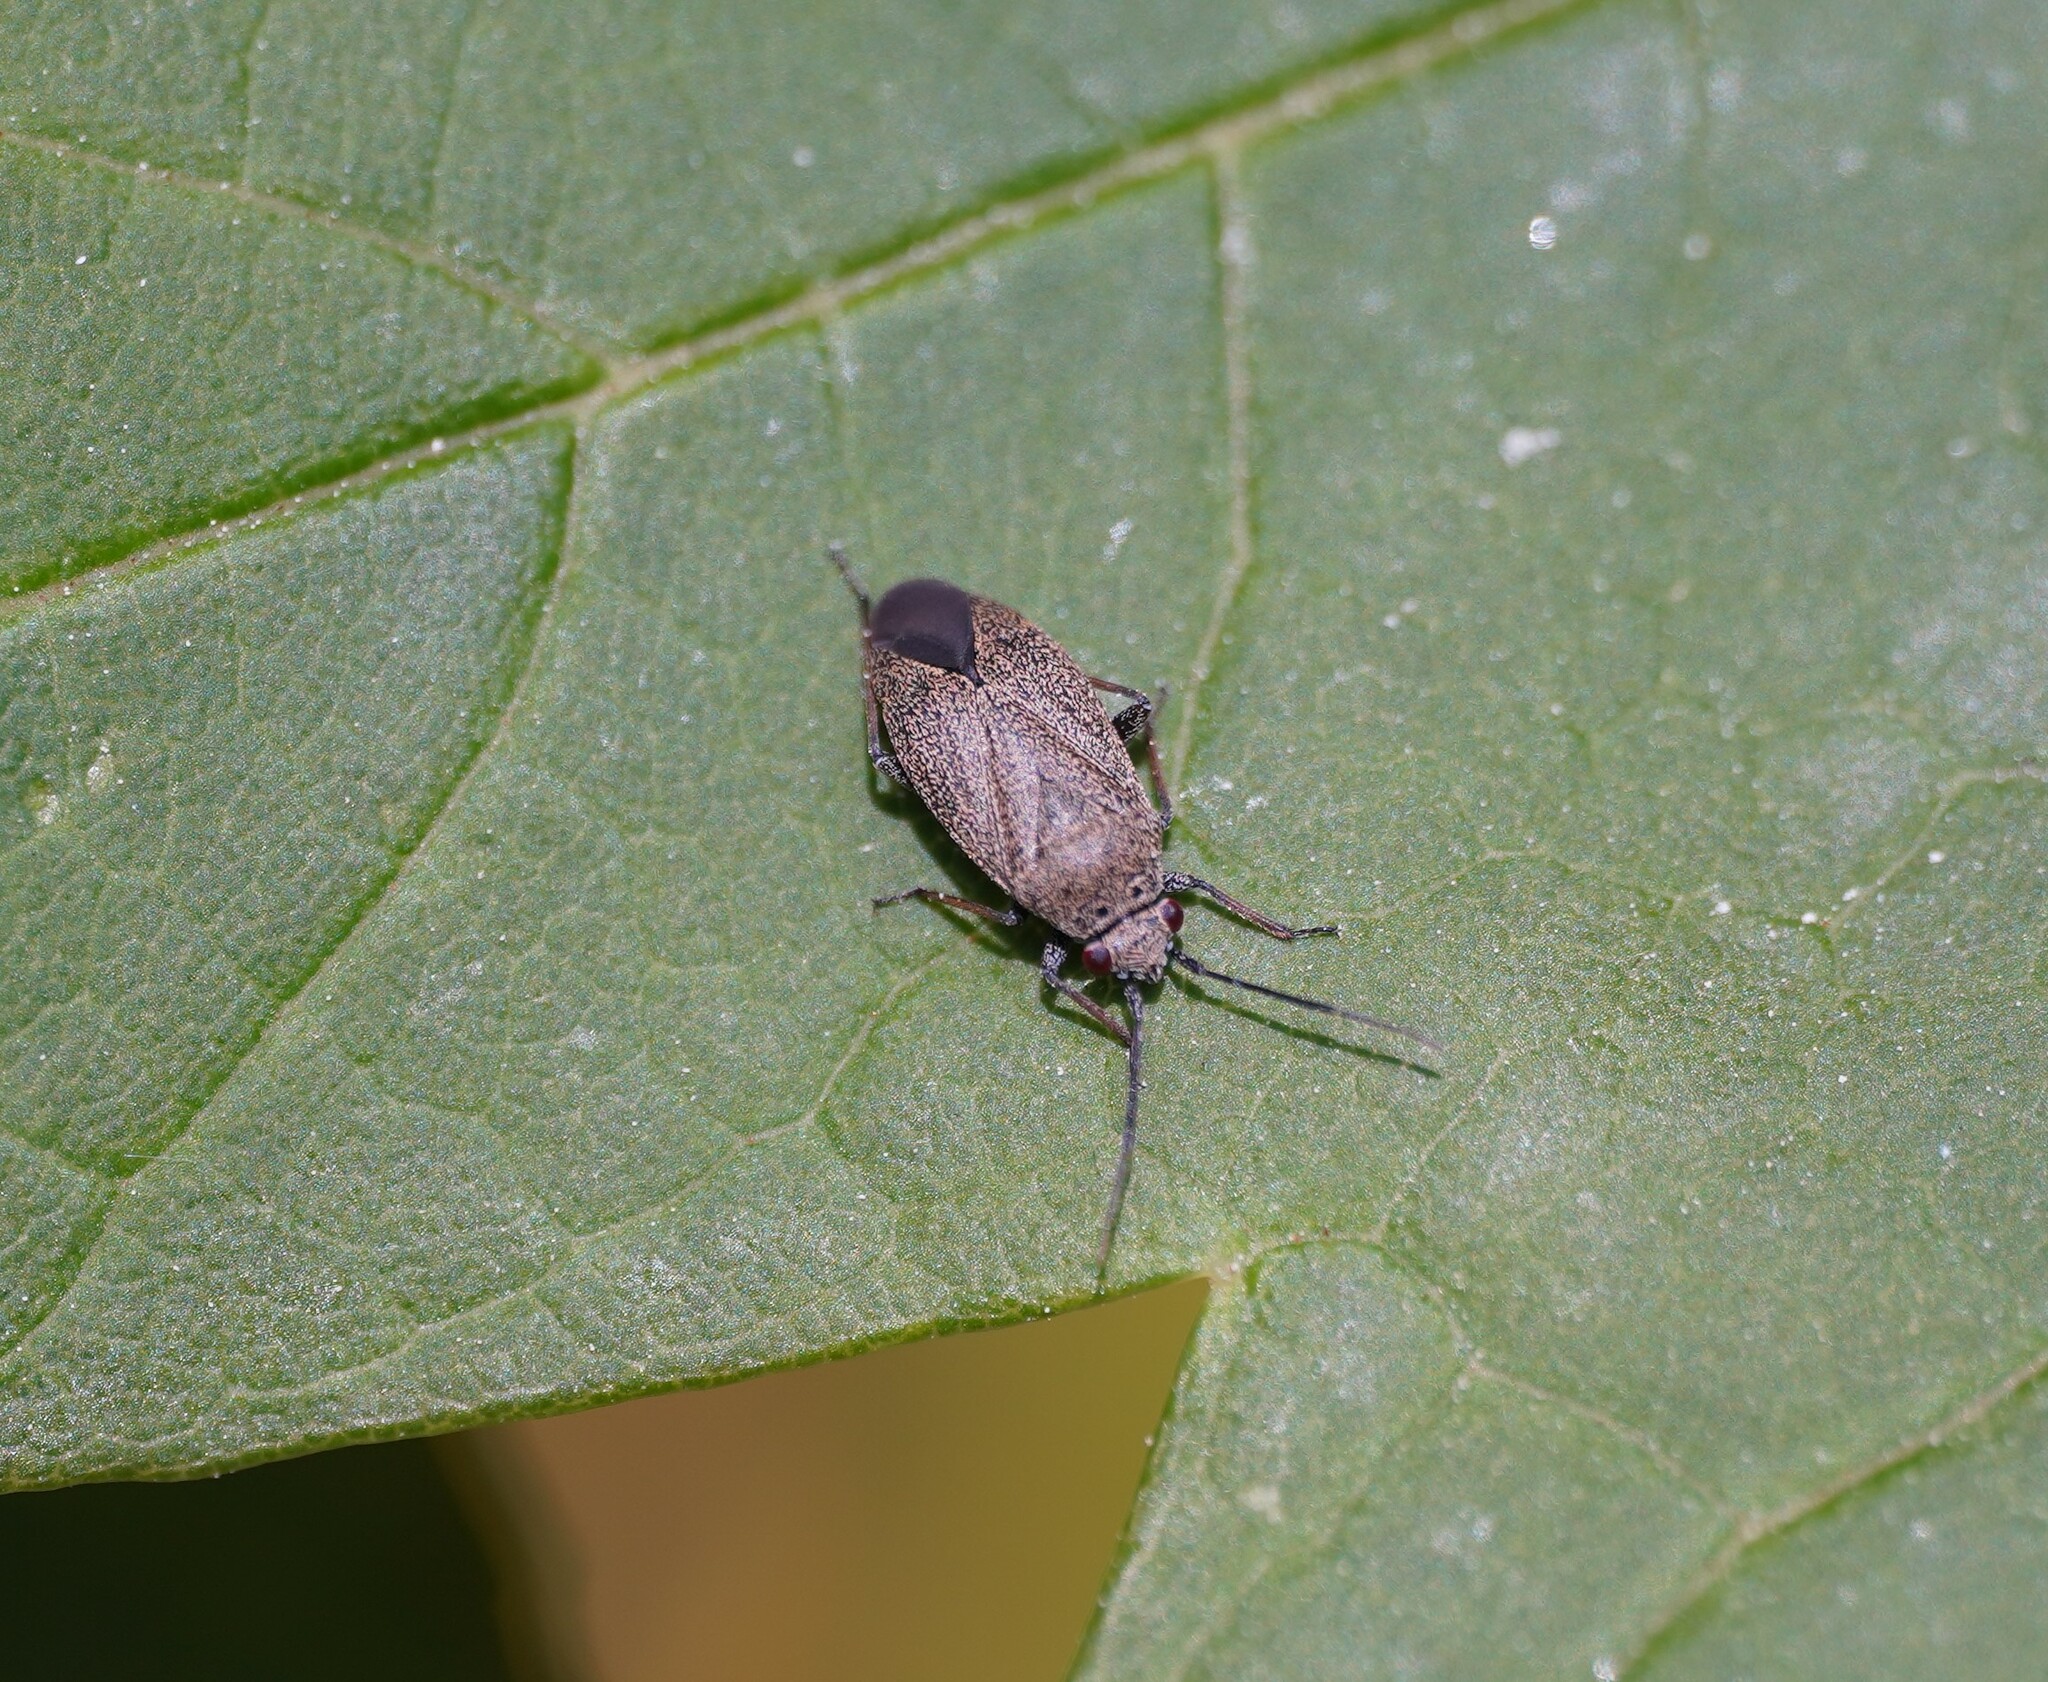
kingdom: Animalia
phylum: Arthropoda
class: Insecta
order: Hemiptera
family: Miridae
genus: Heterocordylus
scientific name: Heterocordylus tibialis
